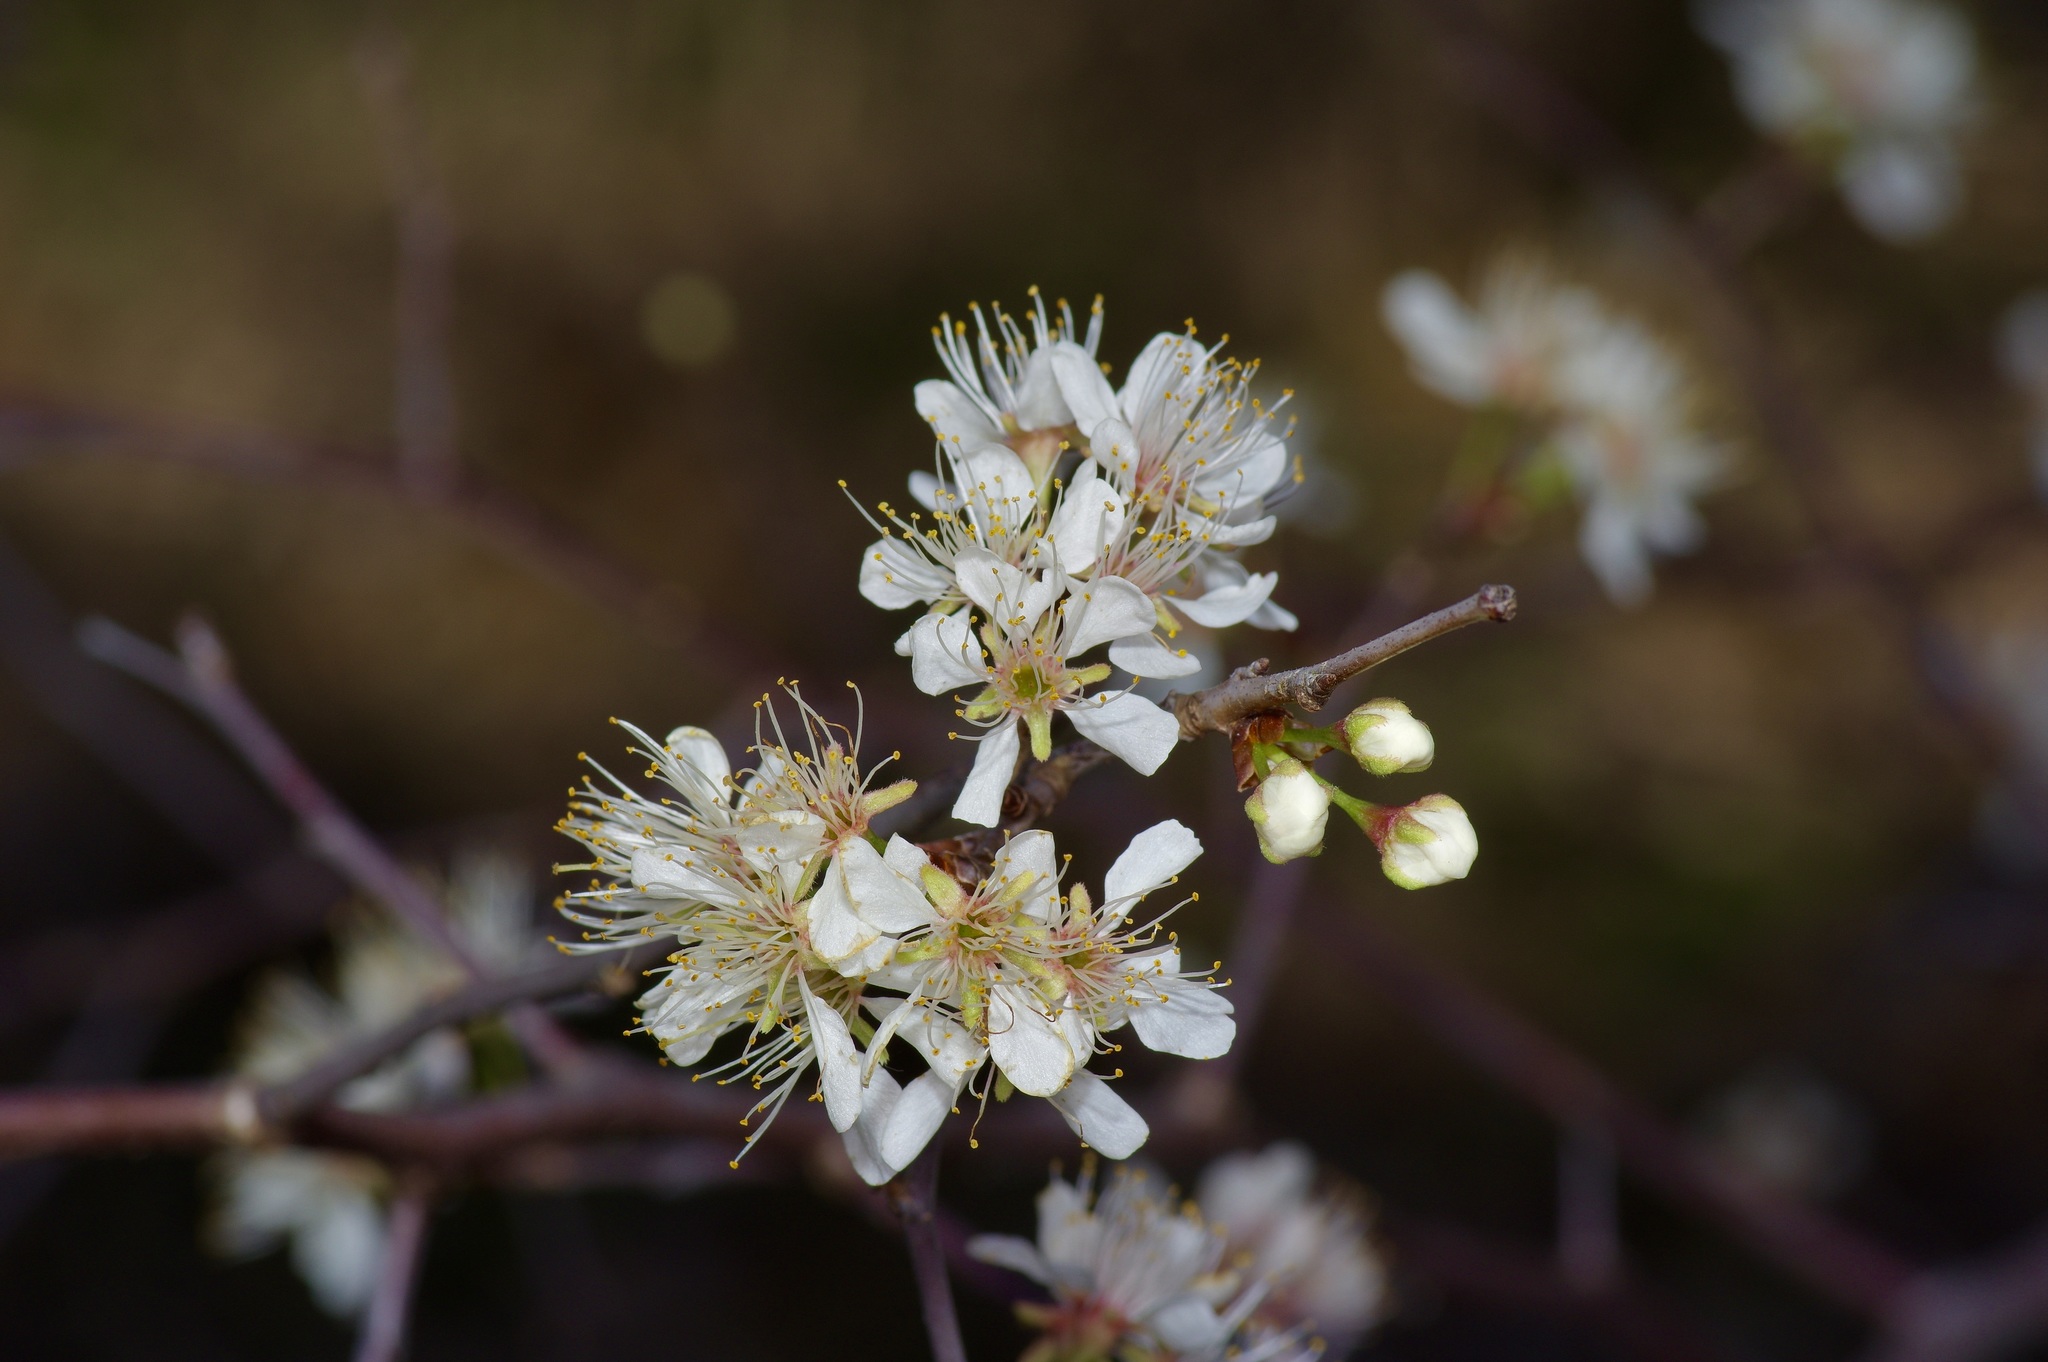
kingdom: Plantae
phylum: Tracheophyta
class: Magnoliopsida
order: Rosales
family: Rosaceae
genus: Prunus
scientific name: Prunus angustifolia
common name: Cherokee plum
